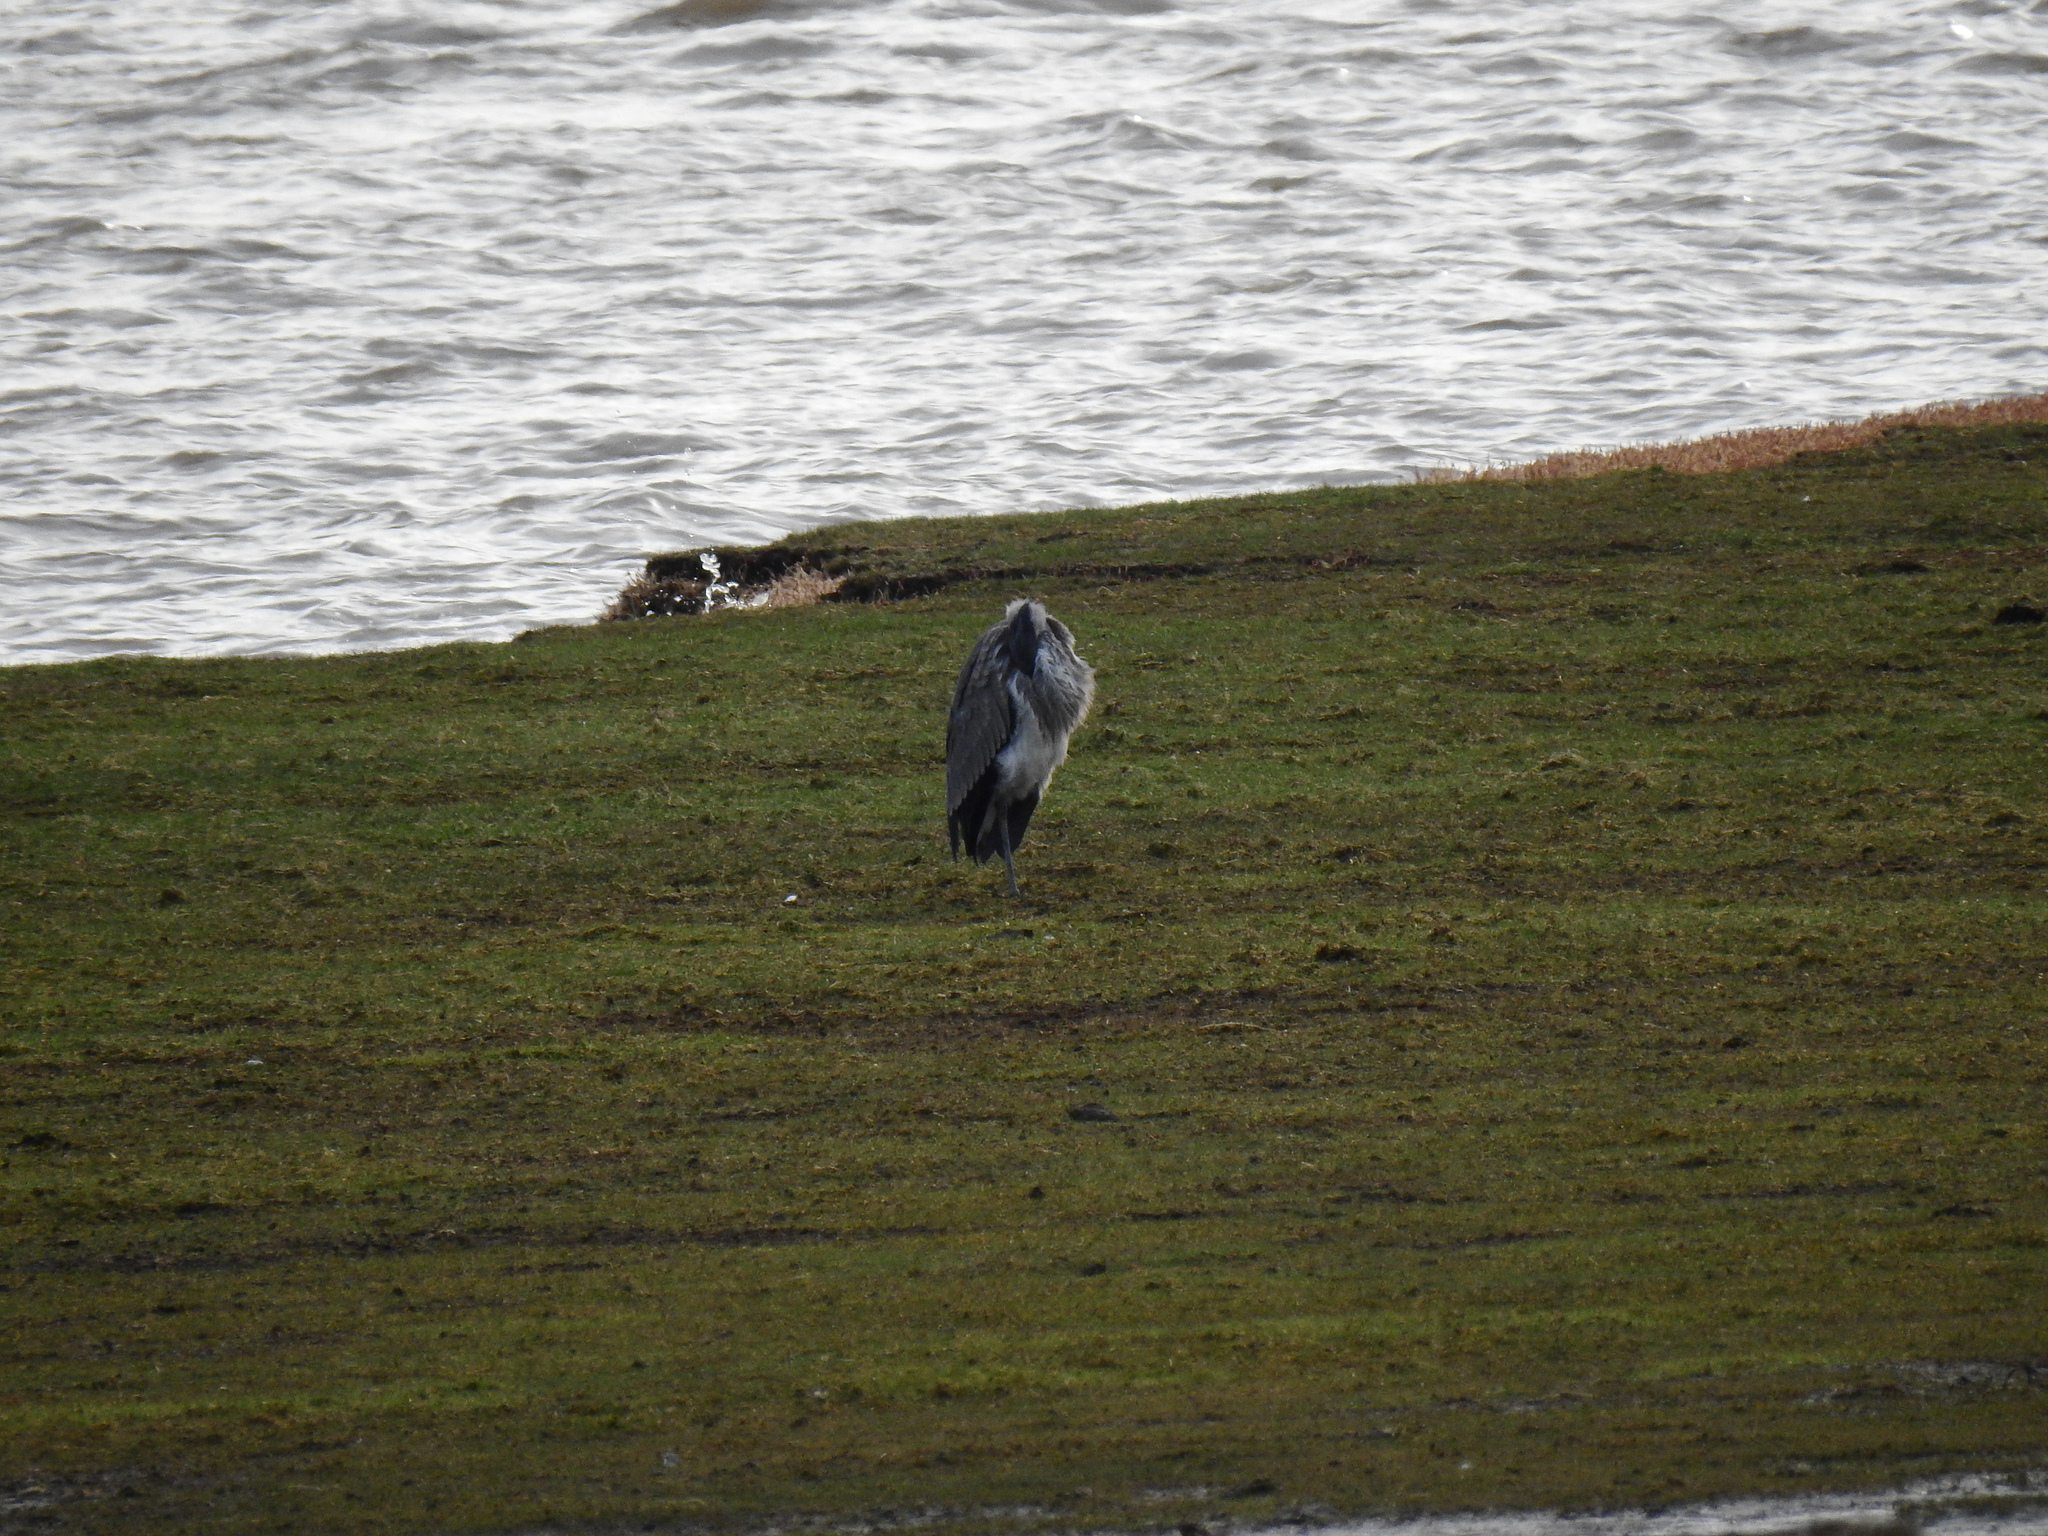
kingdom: Animalia
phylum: Chordata
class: Aves
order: Pelecaniformes
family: Ardeidae
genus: Ardea
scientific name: Ardea cinerea
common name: Grey heron
